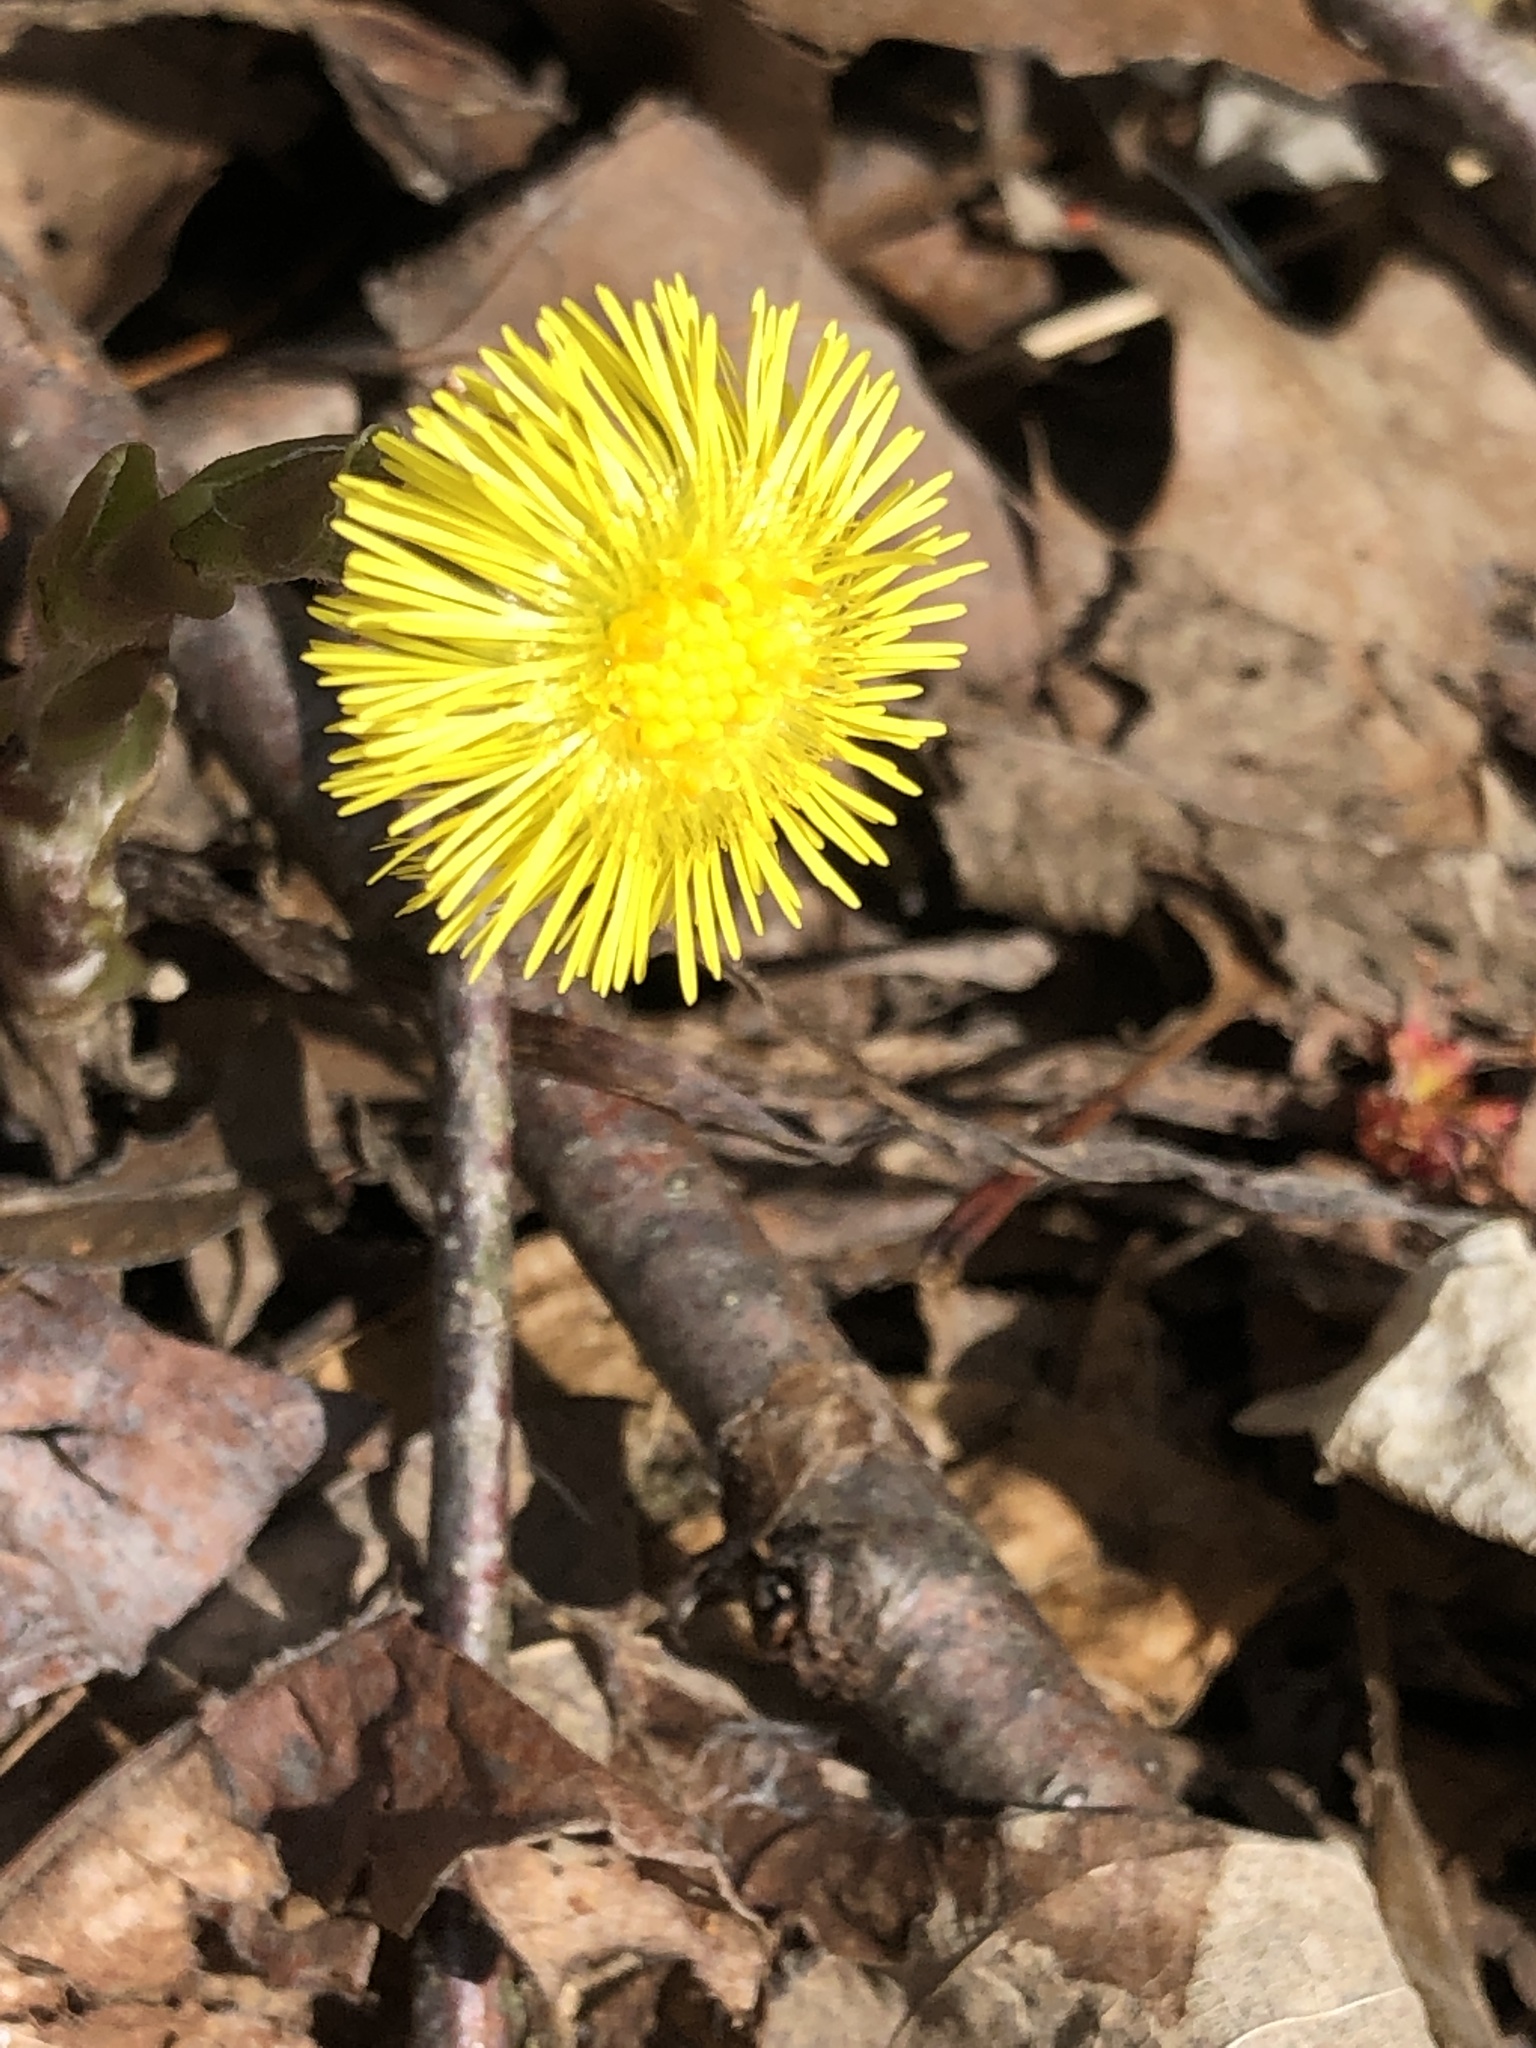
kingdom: Plantae
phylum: Tracheophyta
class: Magnoliopsida
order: Asterales
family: Asteraceae
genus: Tussilago
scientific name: Tussilago farfara
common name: Coltsfoot
